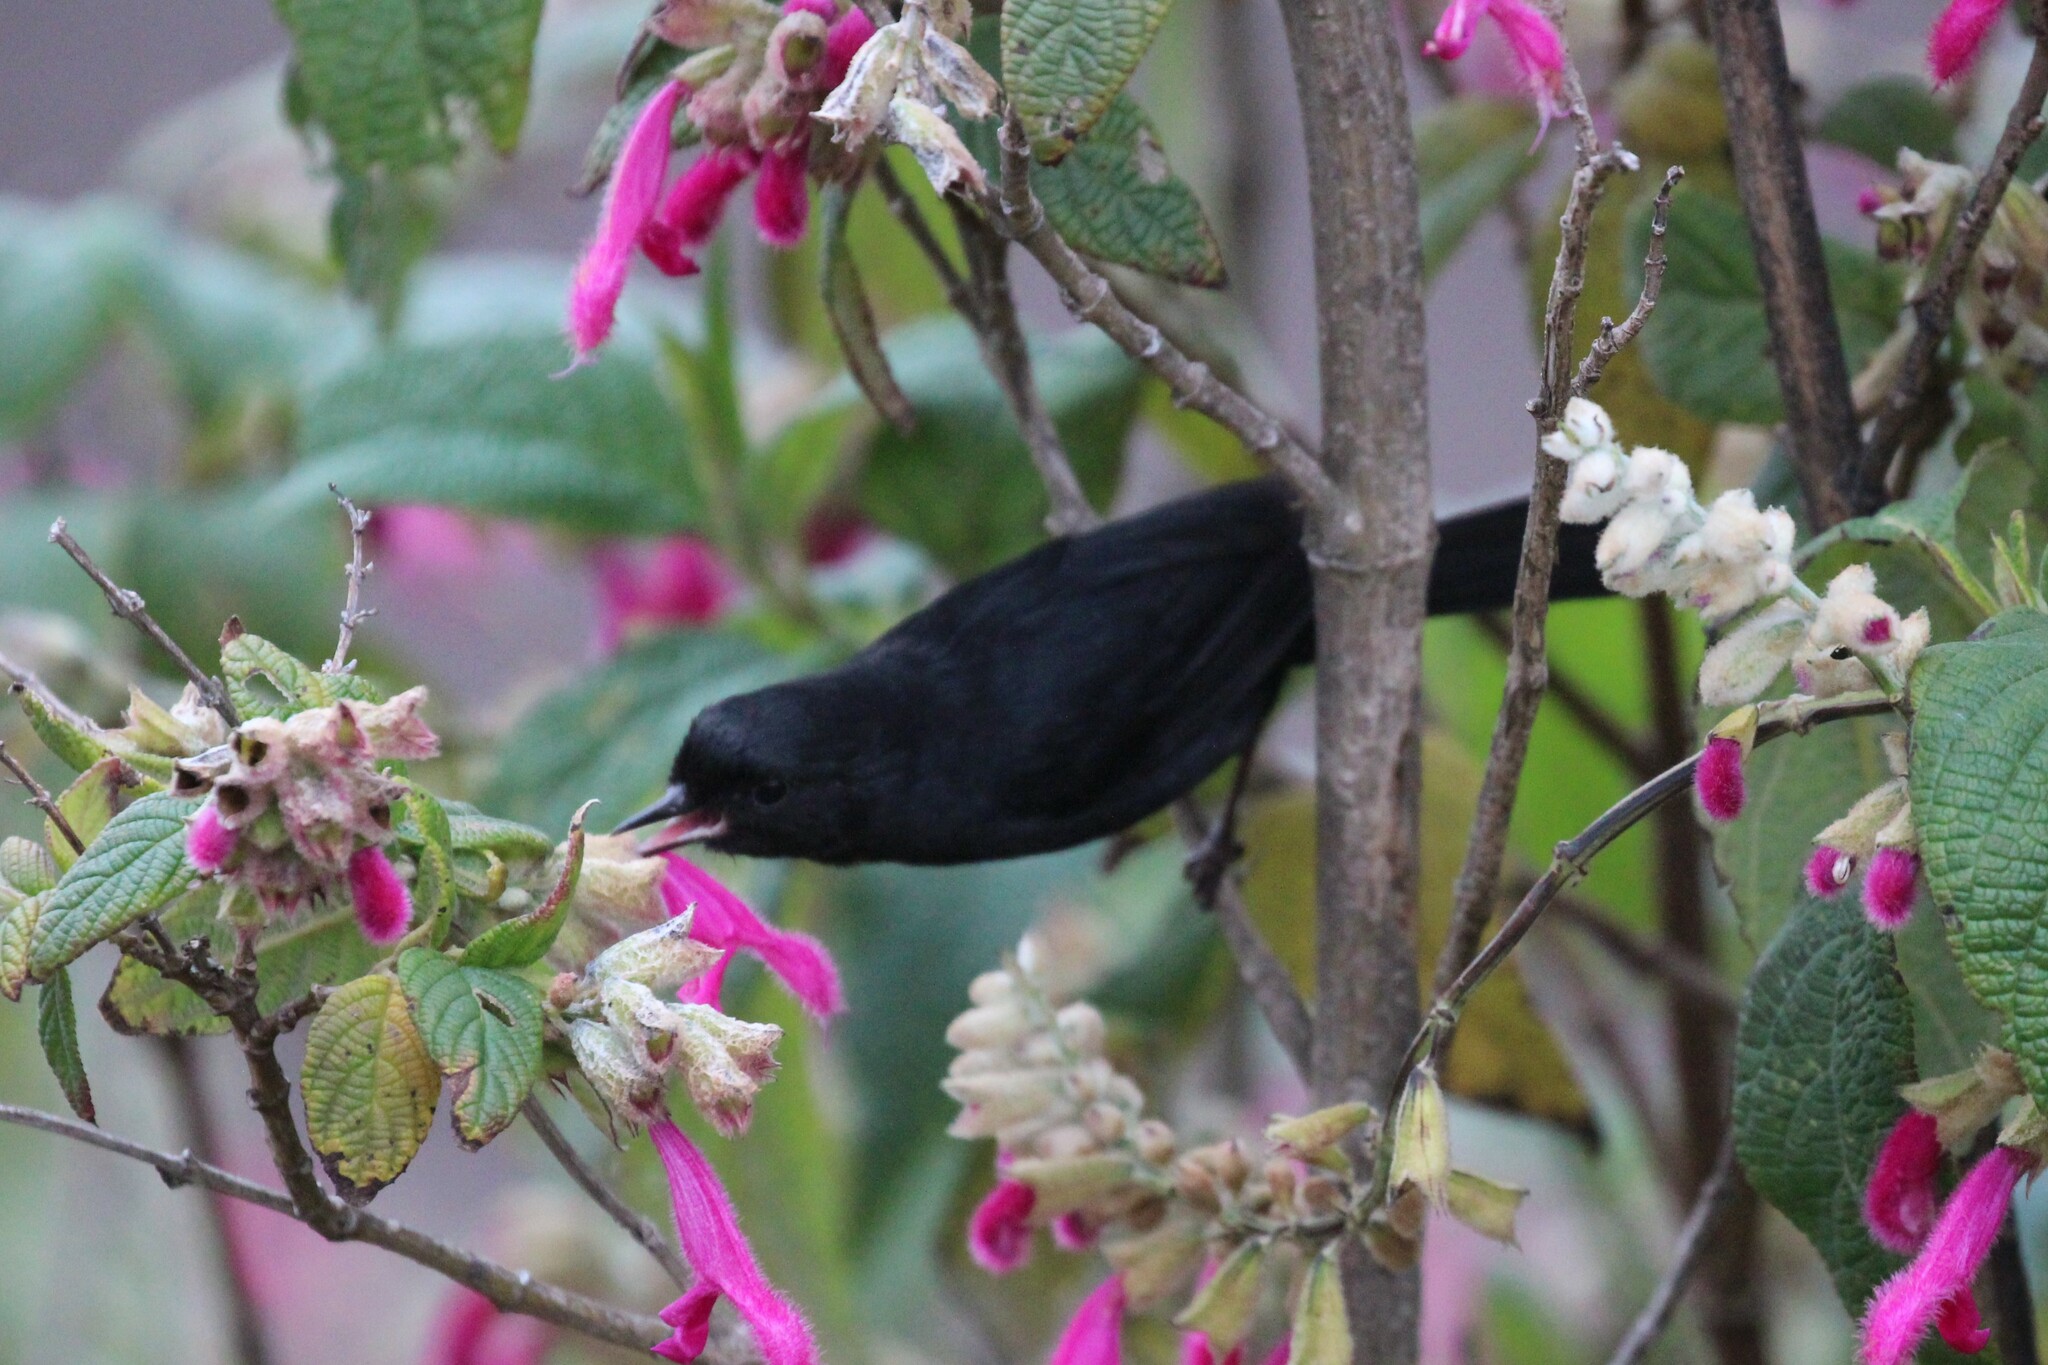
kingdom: Animalia
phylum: Chordata
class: Aves
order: Passeriformes
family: Thraupidae
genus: Diglossa
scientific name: Diglossa humeralis
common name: Black flowerpiercer
